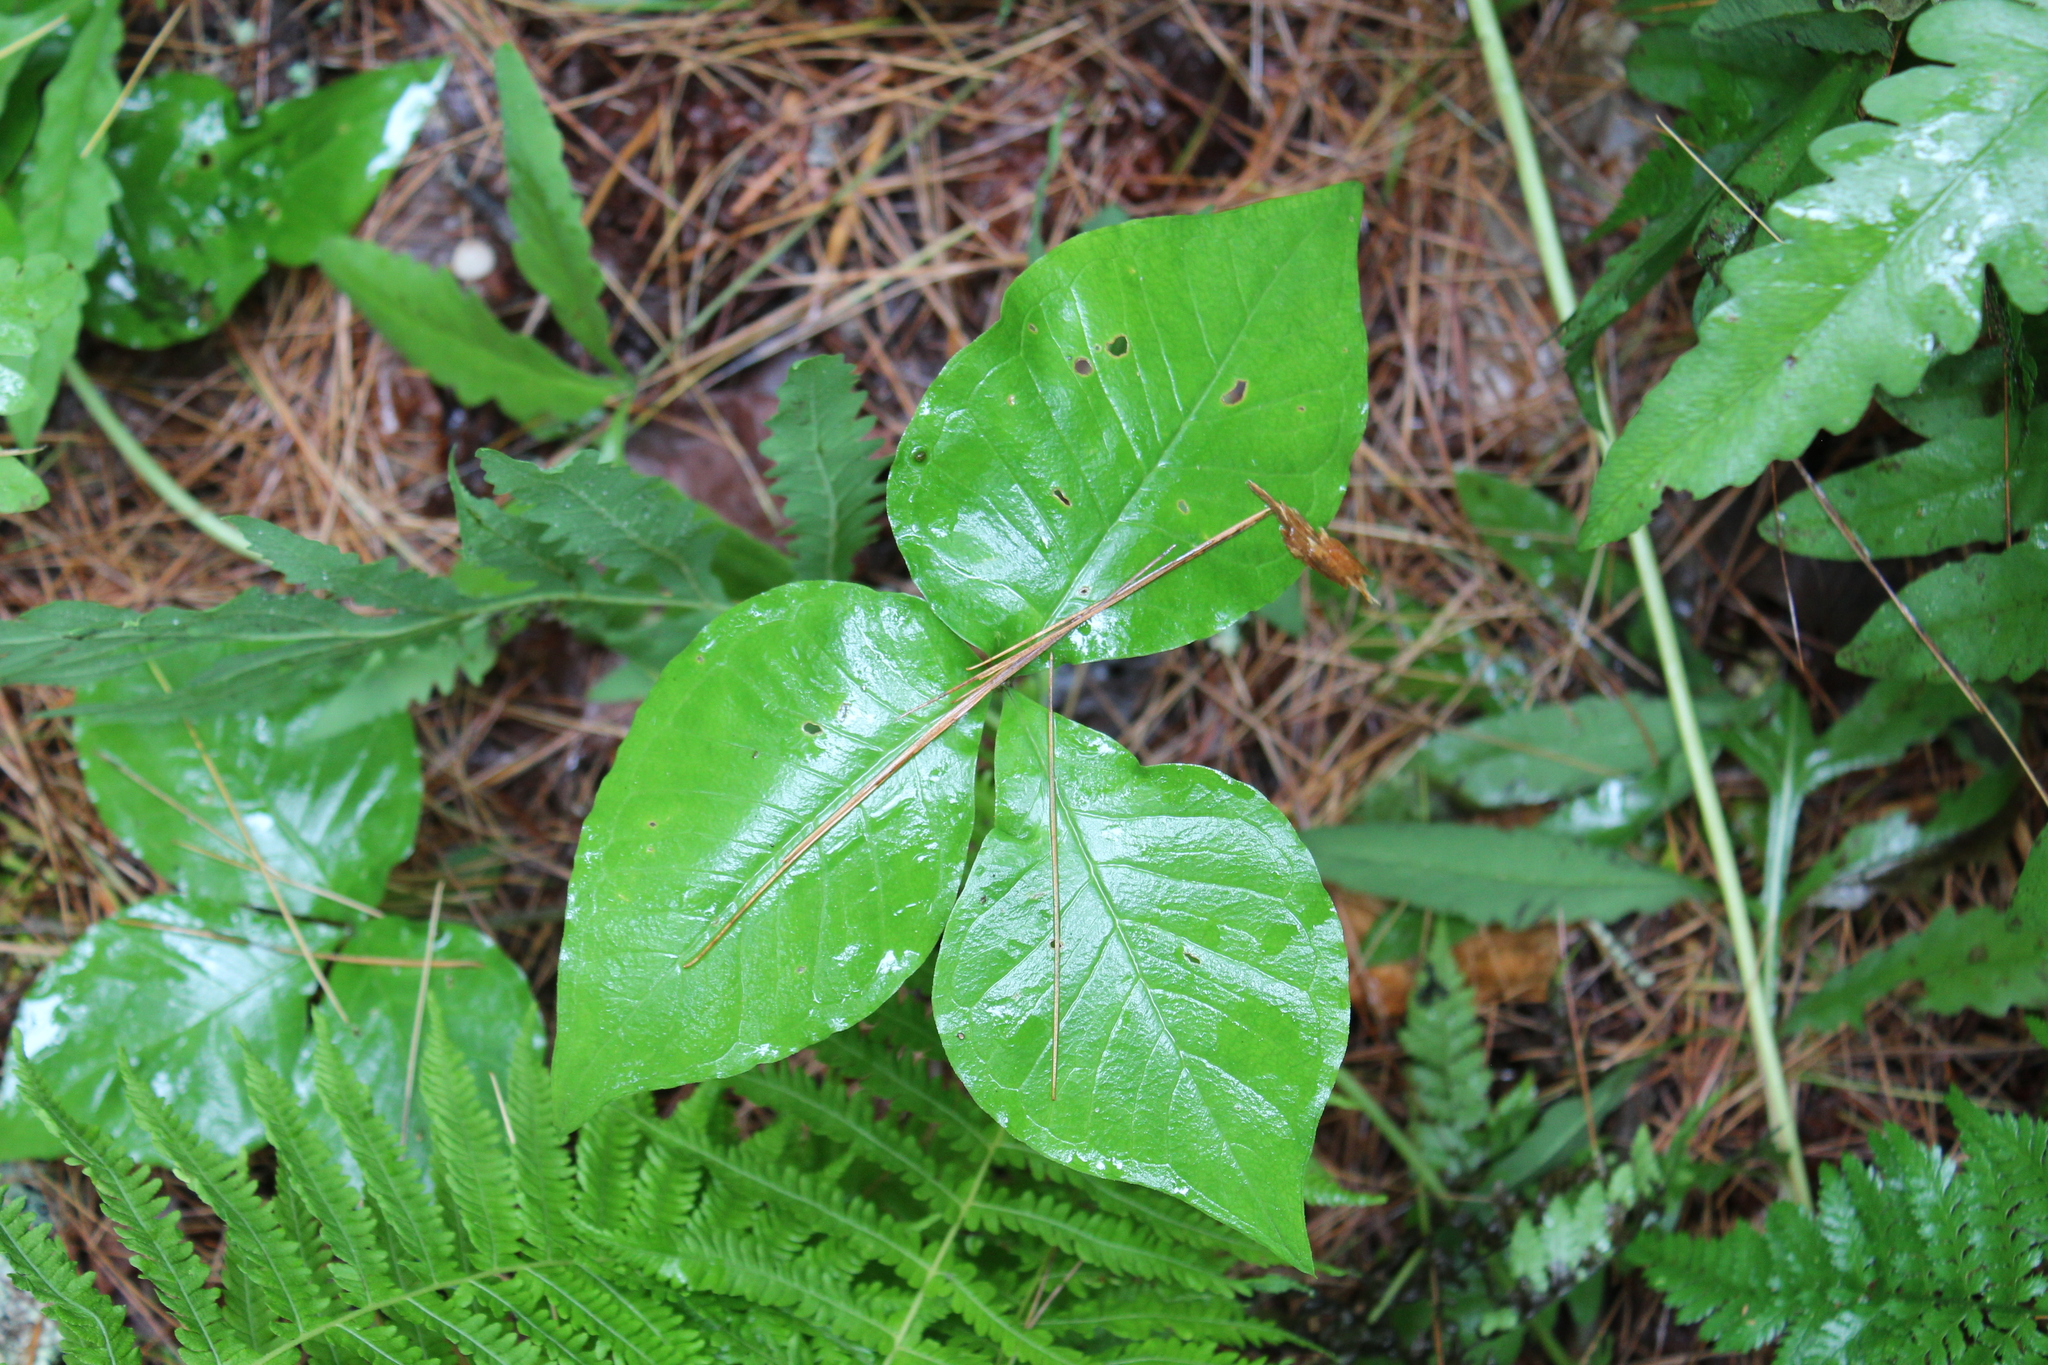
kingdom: Plantae
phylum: Tracheophyta
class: Liliopsida
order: Alismatales
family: Araceae
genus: Arisaema
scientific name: Arisaema triphyllum
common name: Jack-in-the-pulpit
